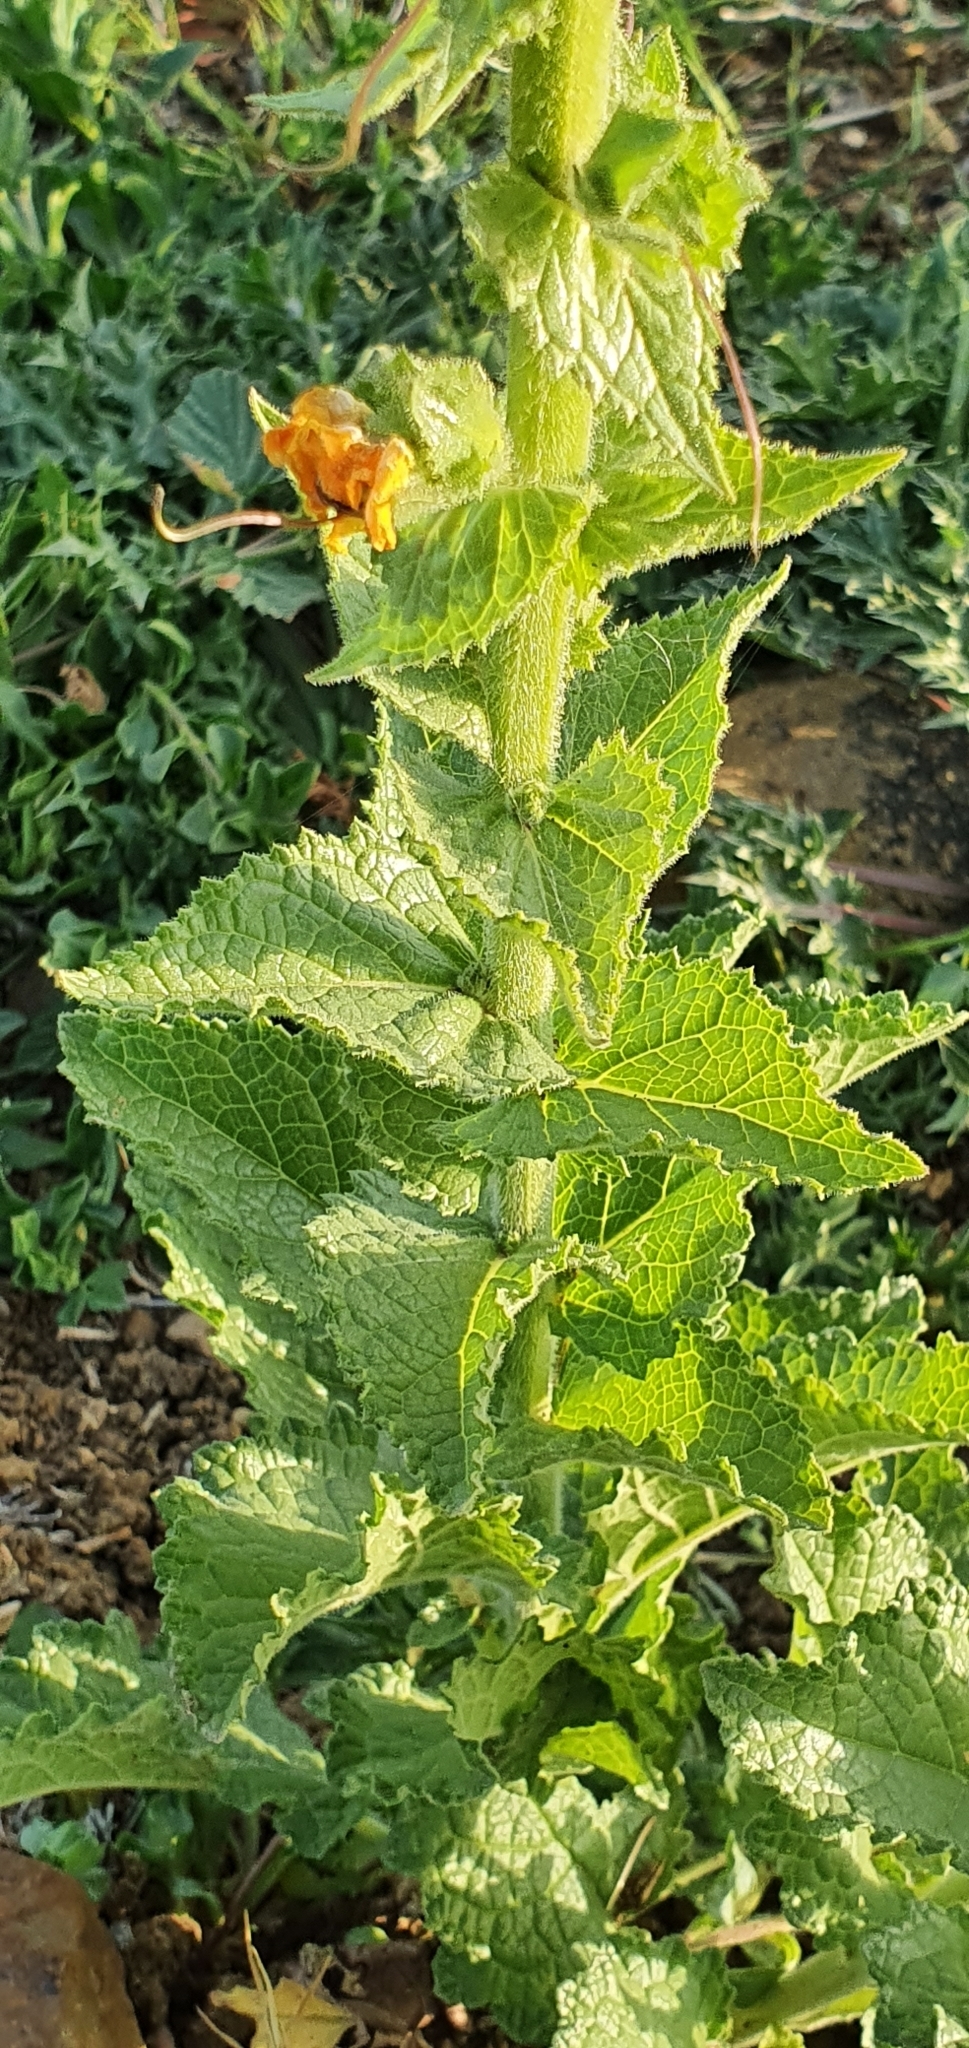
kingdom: Plantae
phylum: Tracheophyta
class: Magnoliopsida
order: Lamiales
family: Scrophulariaceae
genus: Verbascum
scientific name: Verbascum creticum
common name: Cretan mullein
